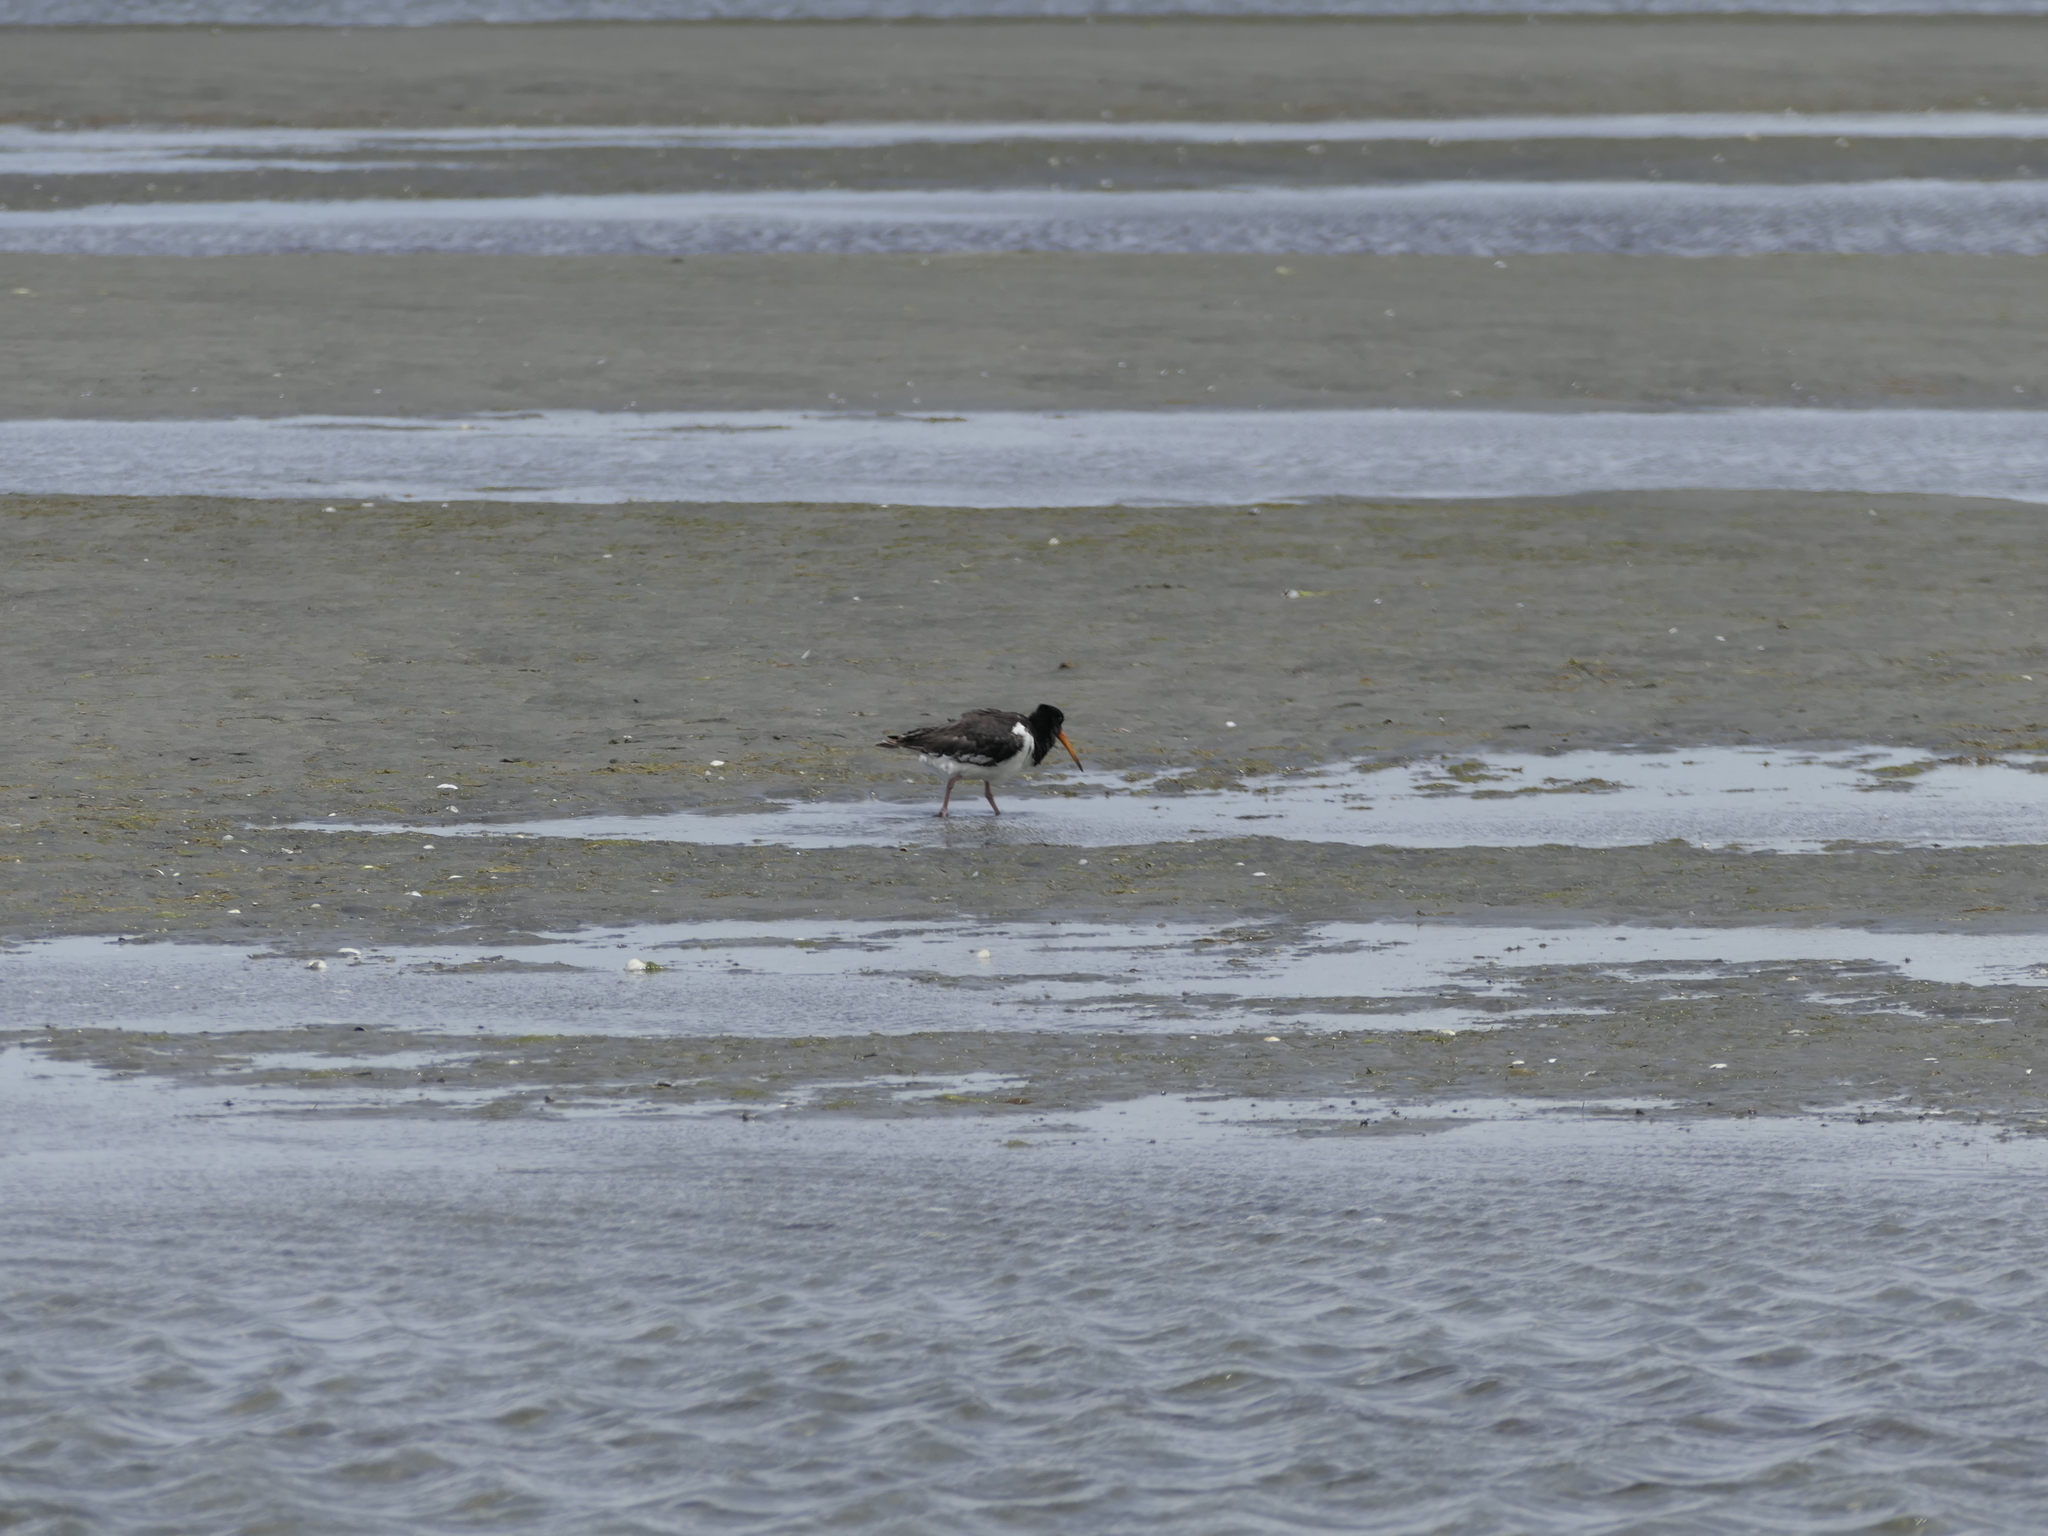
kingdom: Animalia
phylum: Chordata
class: Aves
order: Charadriiformes
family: Haematopodidae
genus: Haematopus
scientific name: Haematopus finschi
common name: South island oystercatcher
